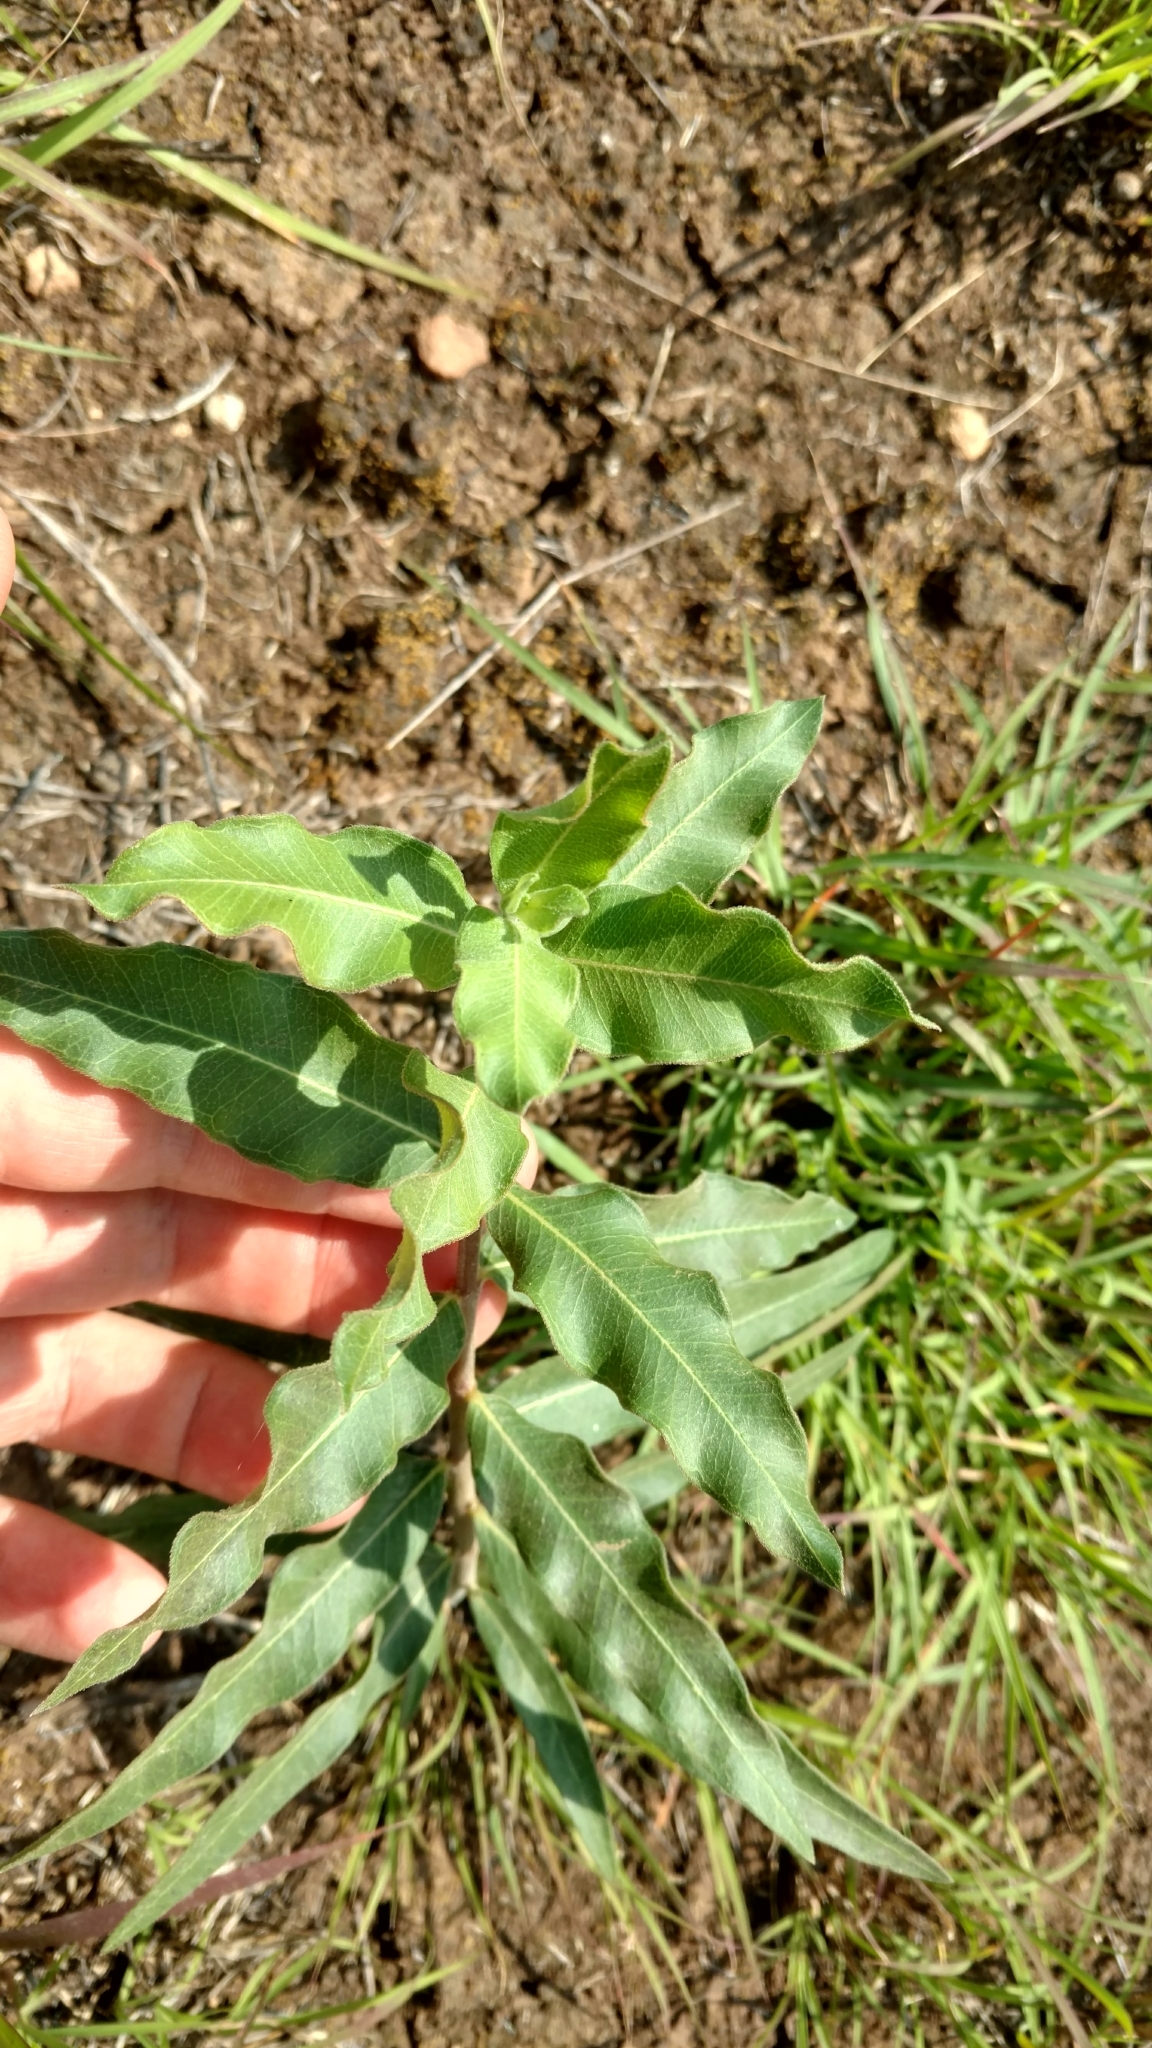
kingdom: Plantae
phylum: Tracheophyta
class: Magnoliopsida
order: Gentianales
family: Apocynaceae
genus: Asclepias
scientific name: Asclepias viridiflora
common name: Green comet milkweed
